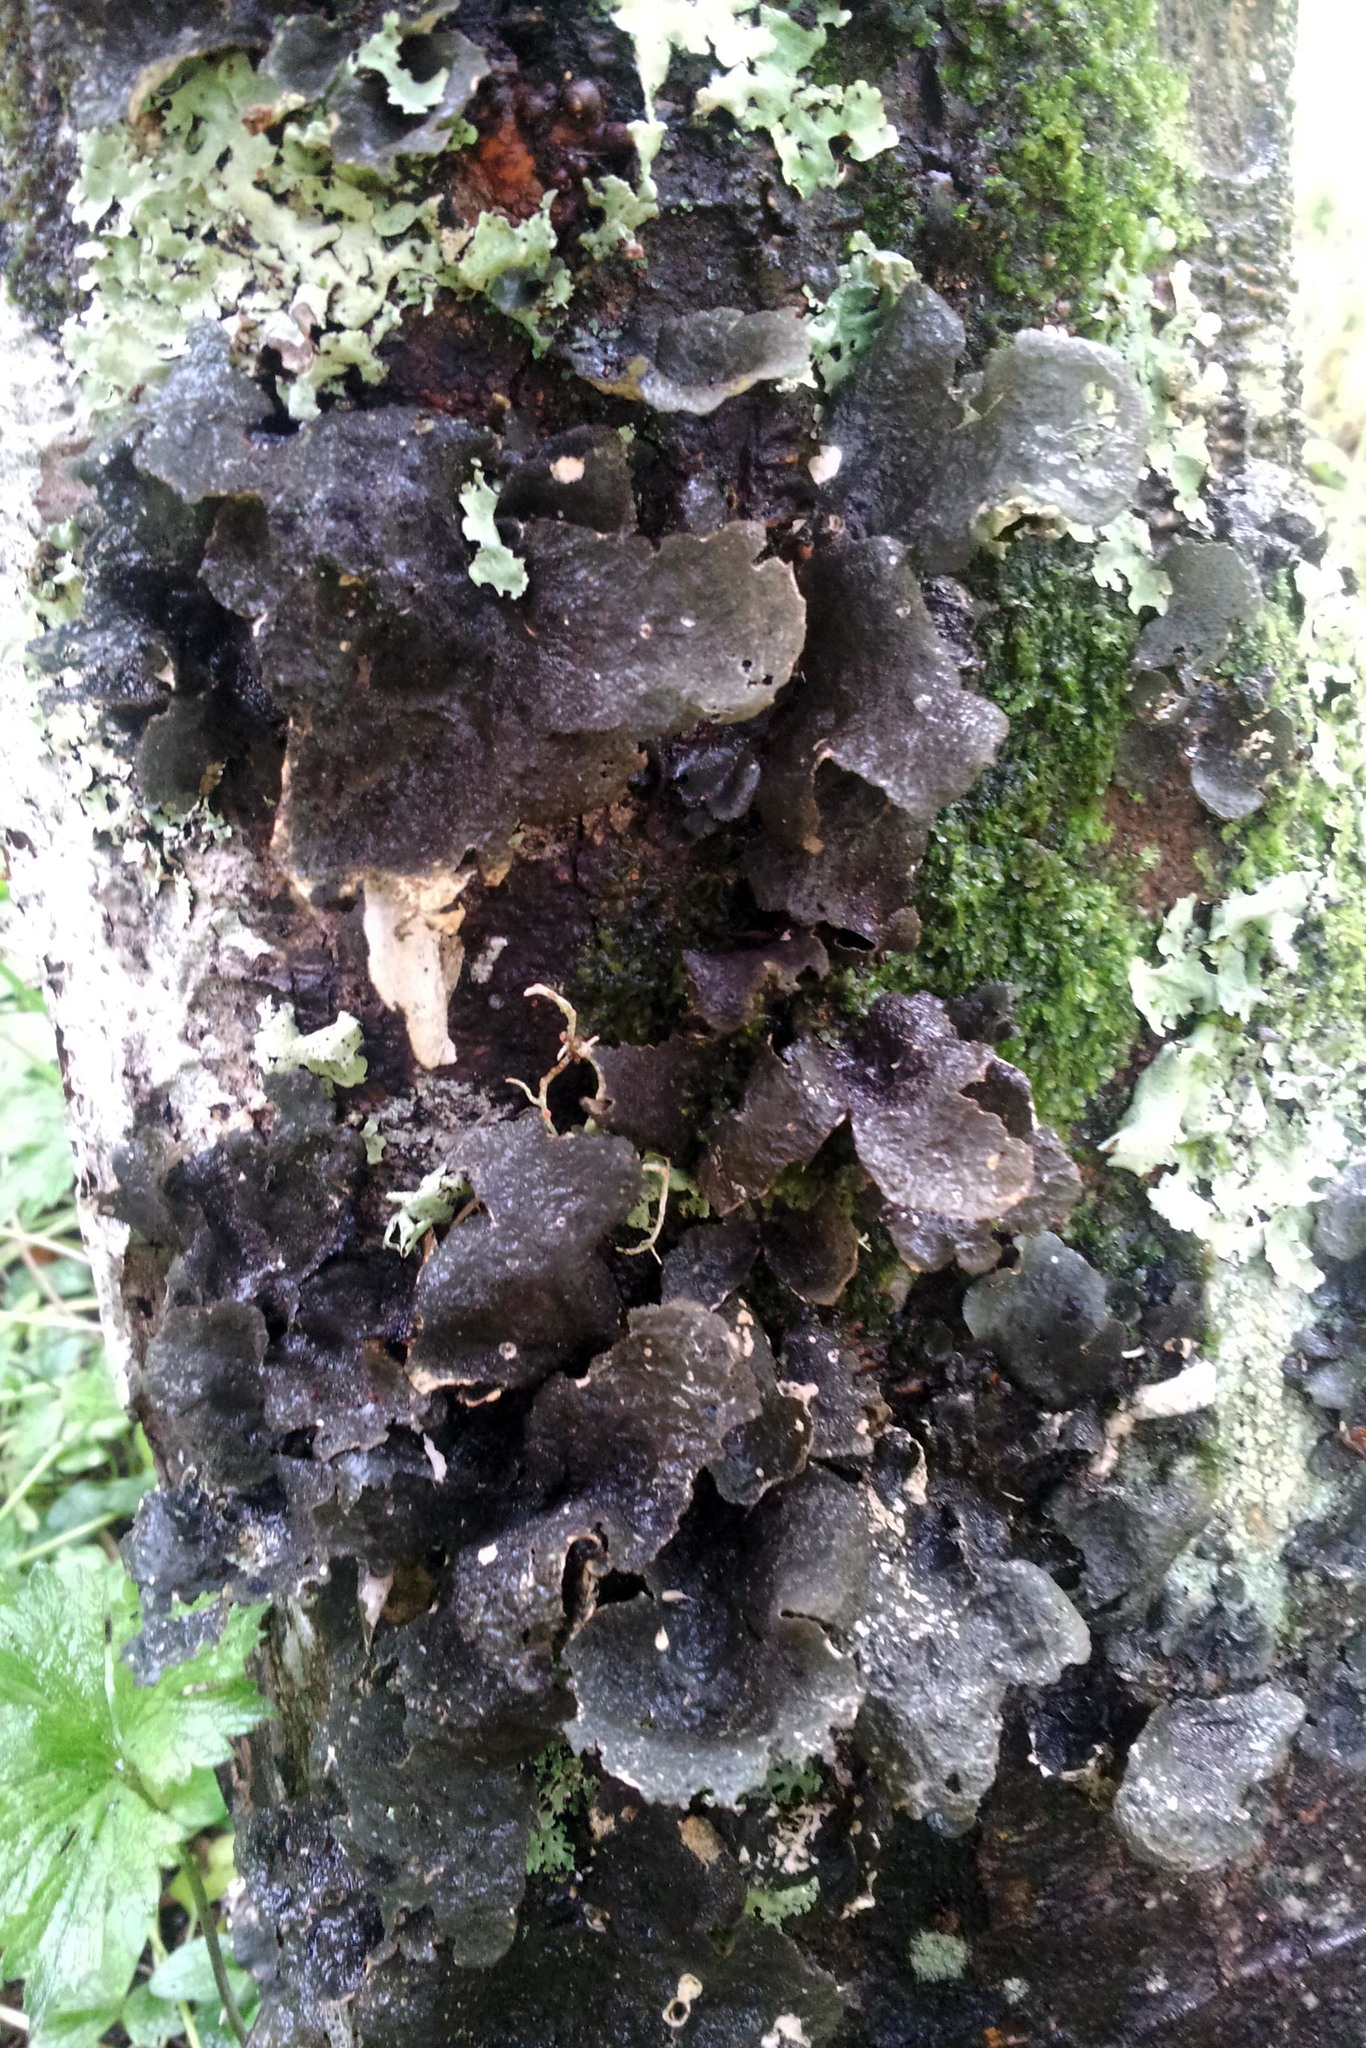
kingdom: Fungi
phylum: Ascomycota
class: Lecanoromycetes
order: Peltigerales
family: Lobariaceae
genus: Sticta
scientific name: Sticta fuliginosa
